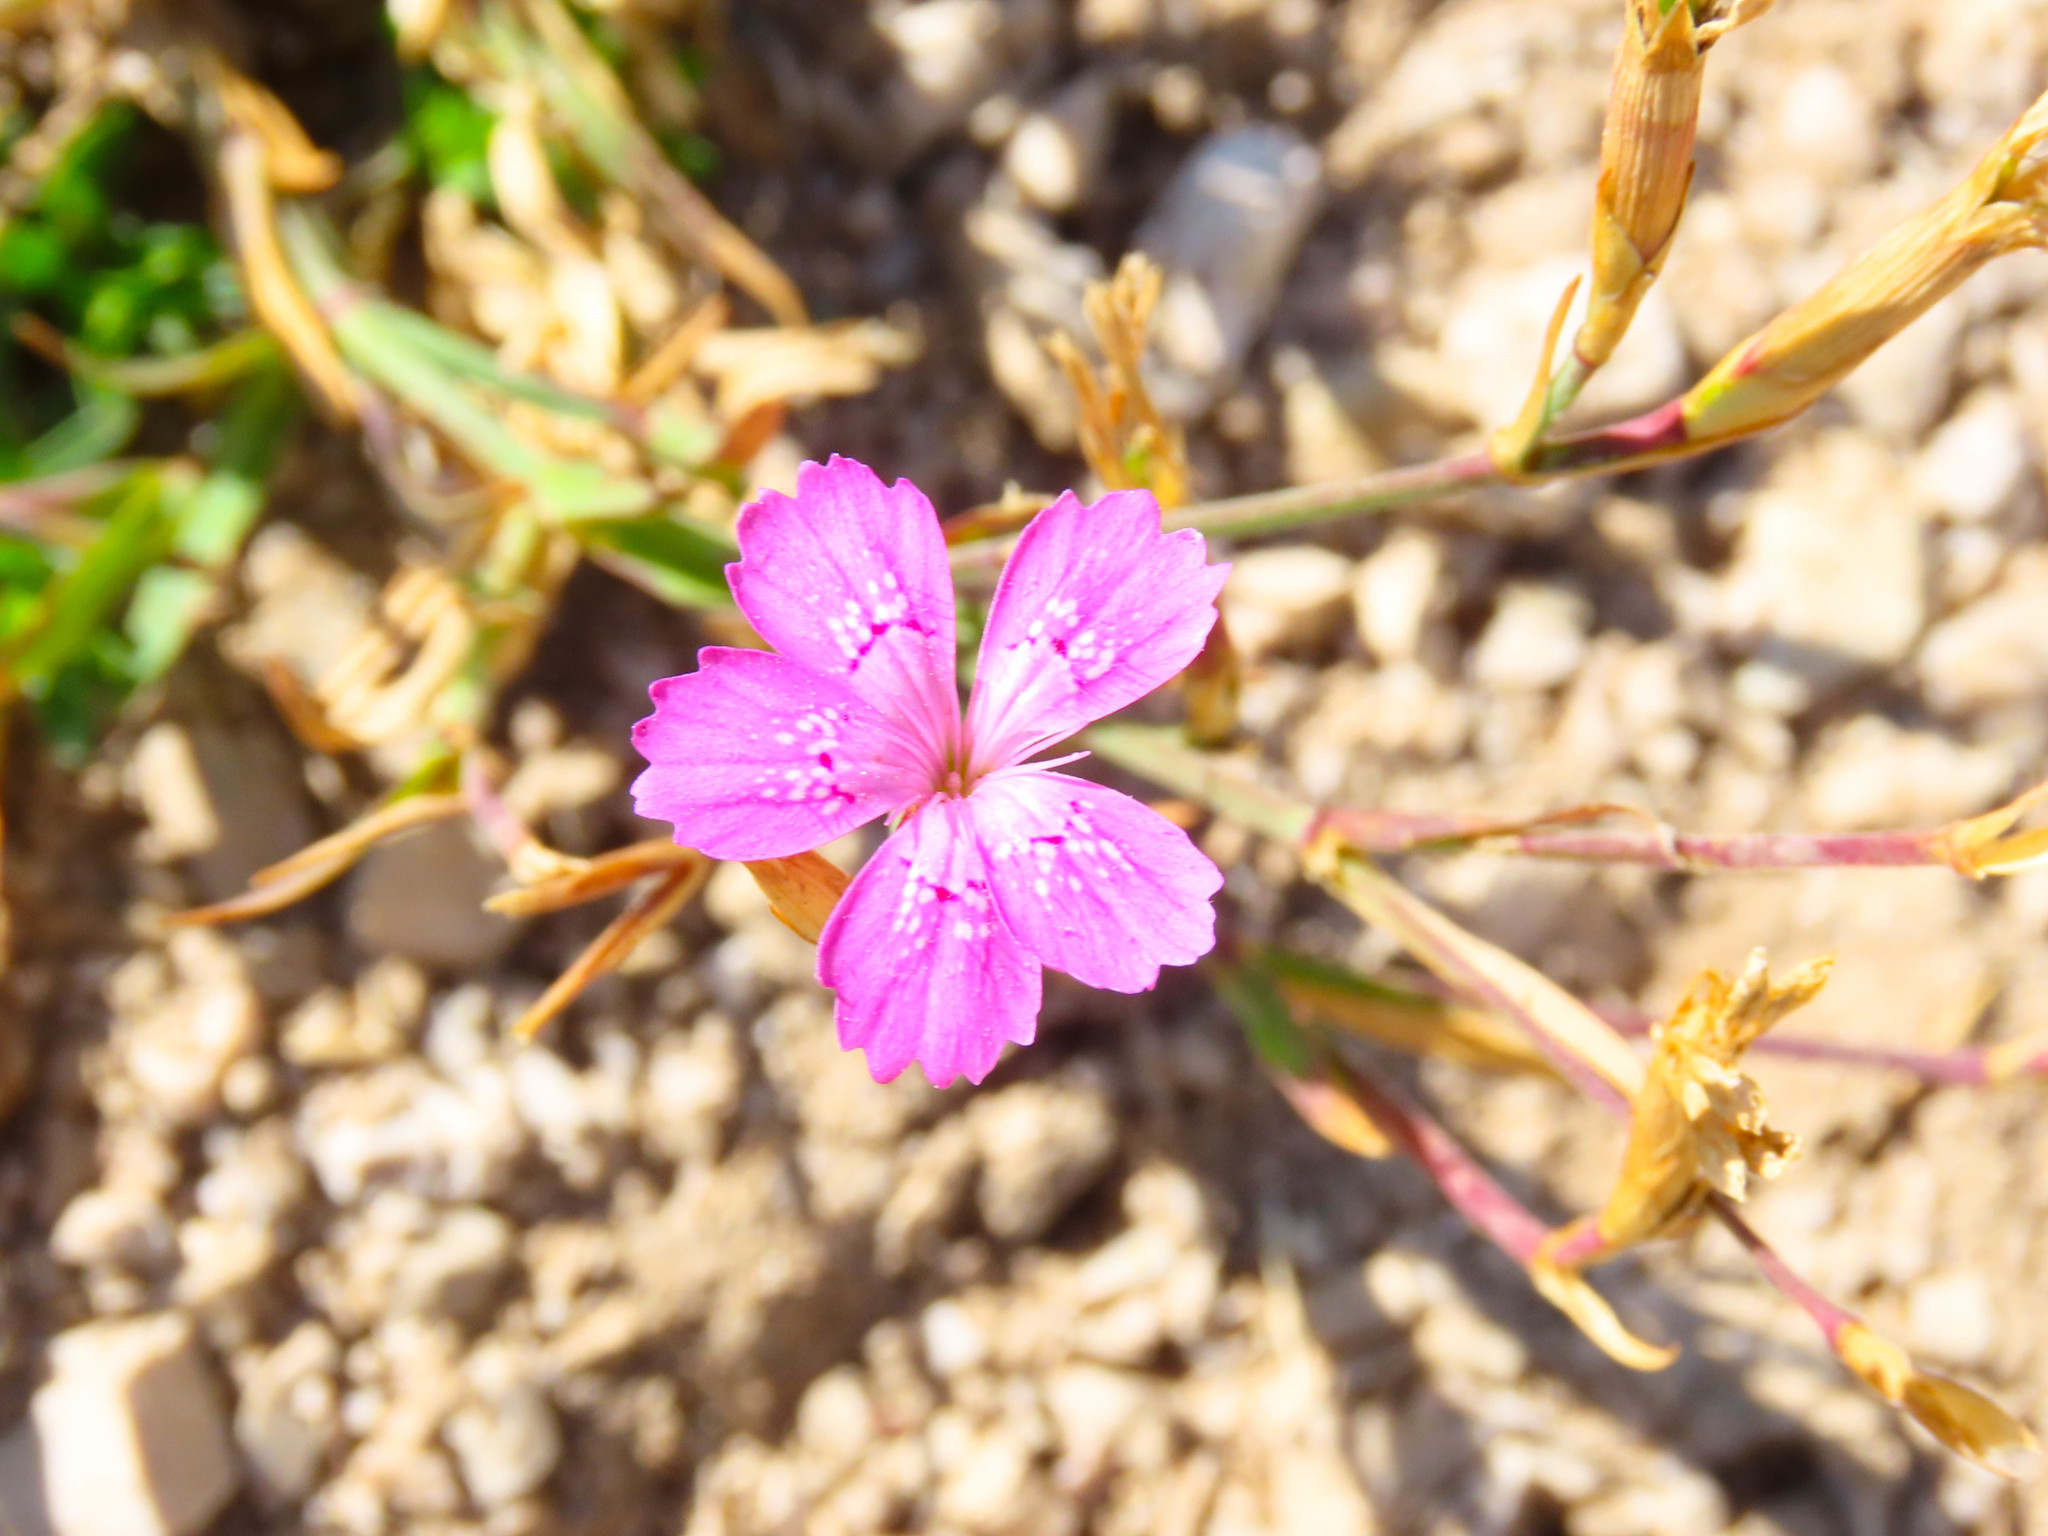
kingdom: Plantae
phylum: Tracheophyta
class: Magnoliopsida
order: Caryophyllales
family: Caryophyllaceae
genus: Dianthus
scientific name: Dianthus deltoides
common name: Maiden pink
